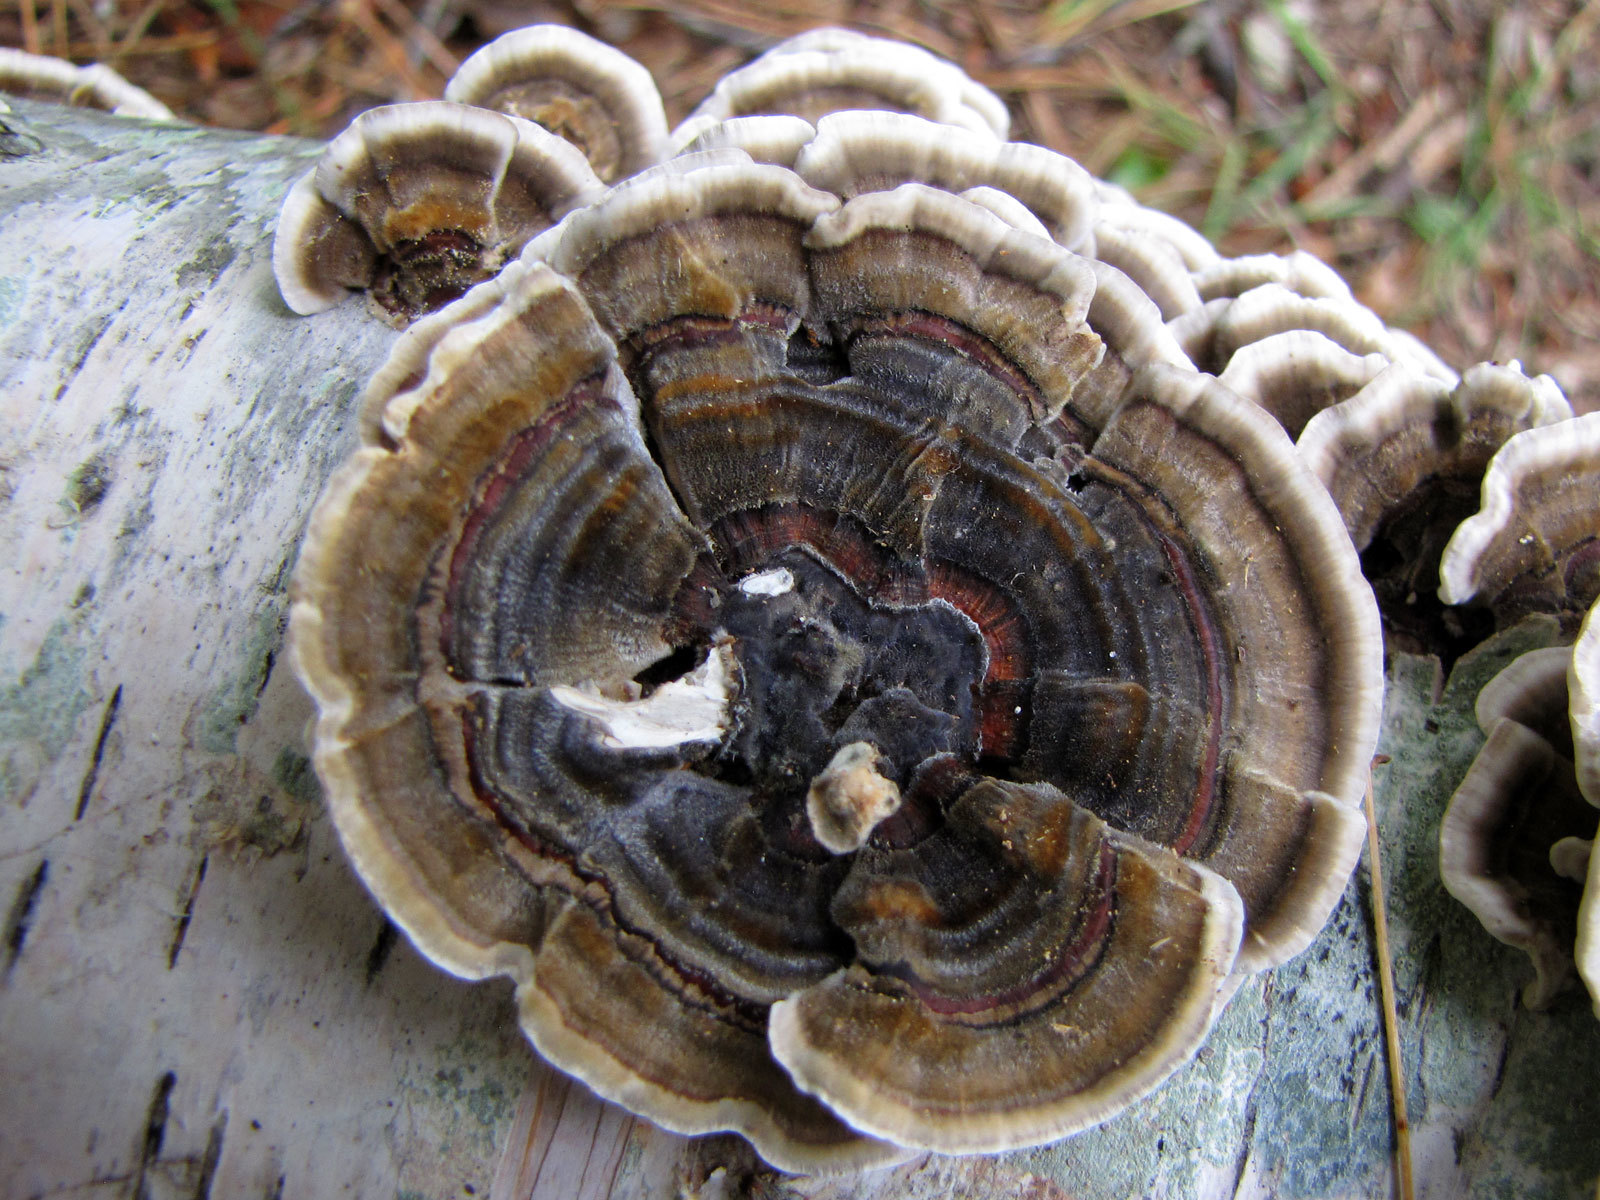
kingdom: Fungi
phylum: Basidiomycota
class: Agaricomycetes
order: Polyporales
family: Polyporaceae
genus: Trametes
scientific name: Trametes versicolor
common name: Turkeytail
